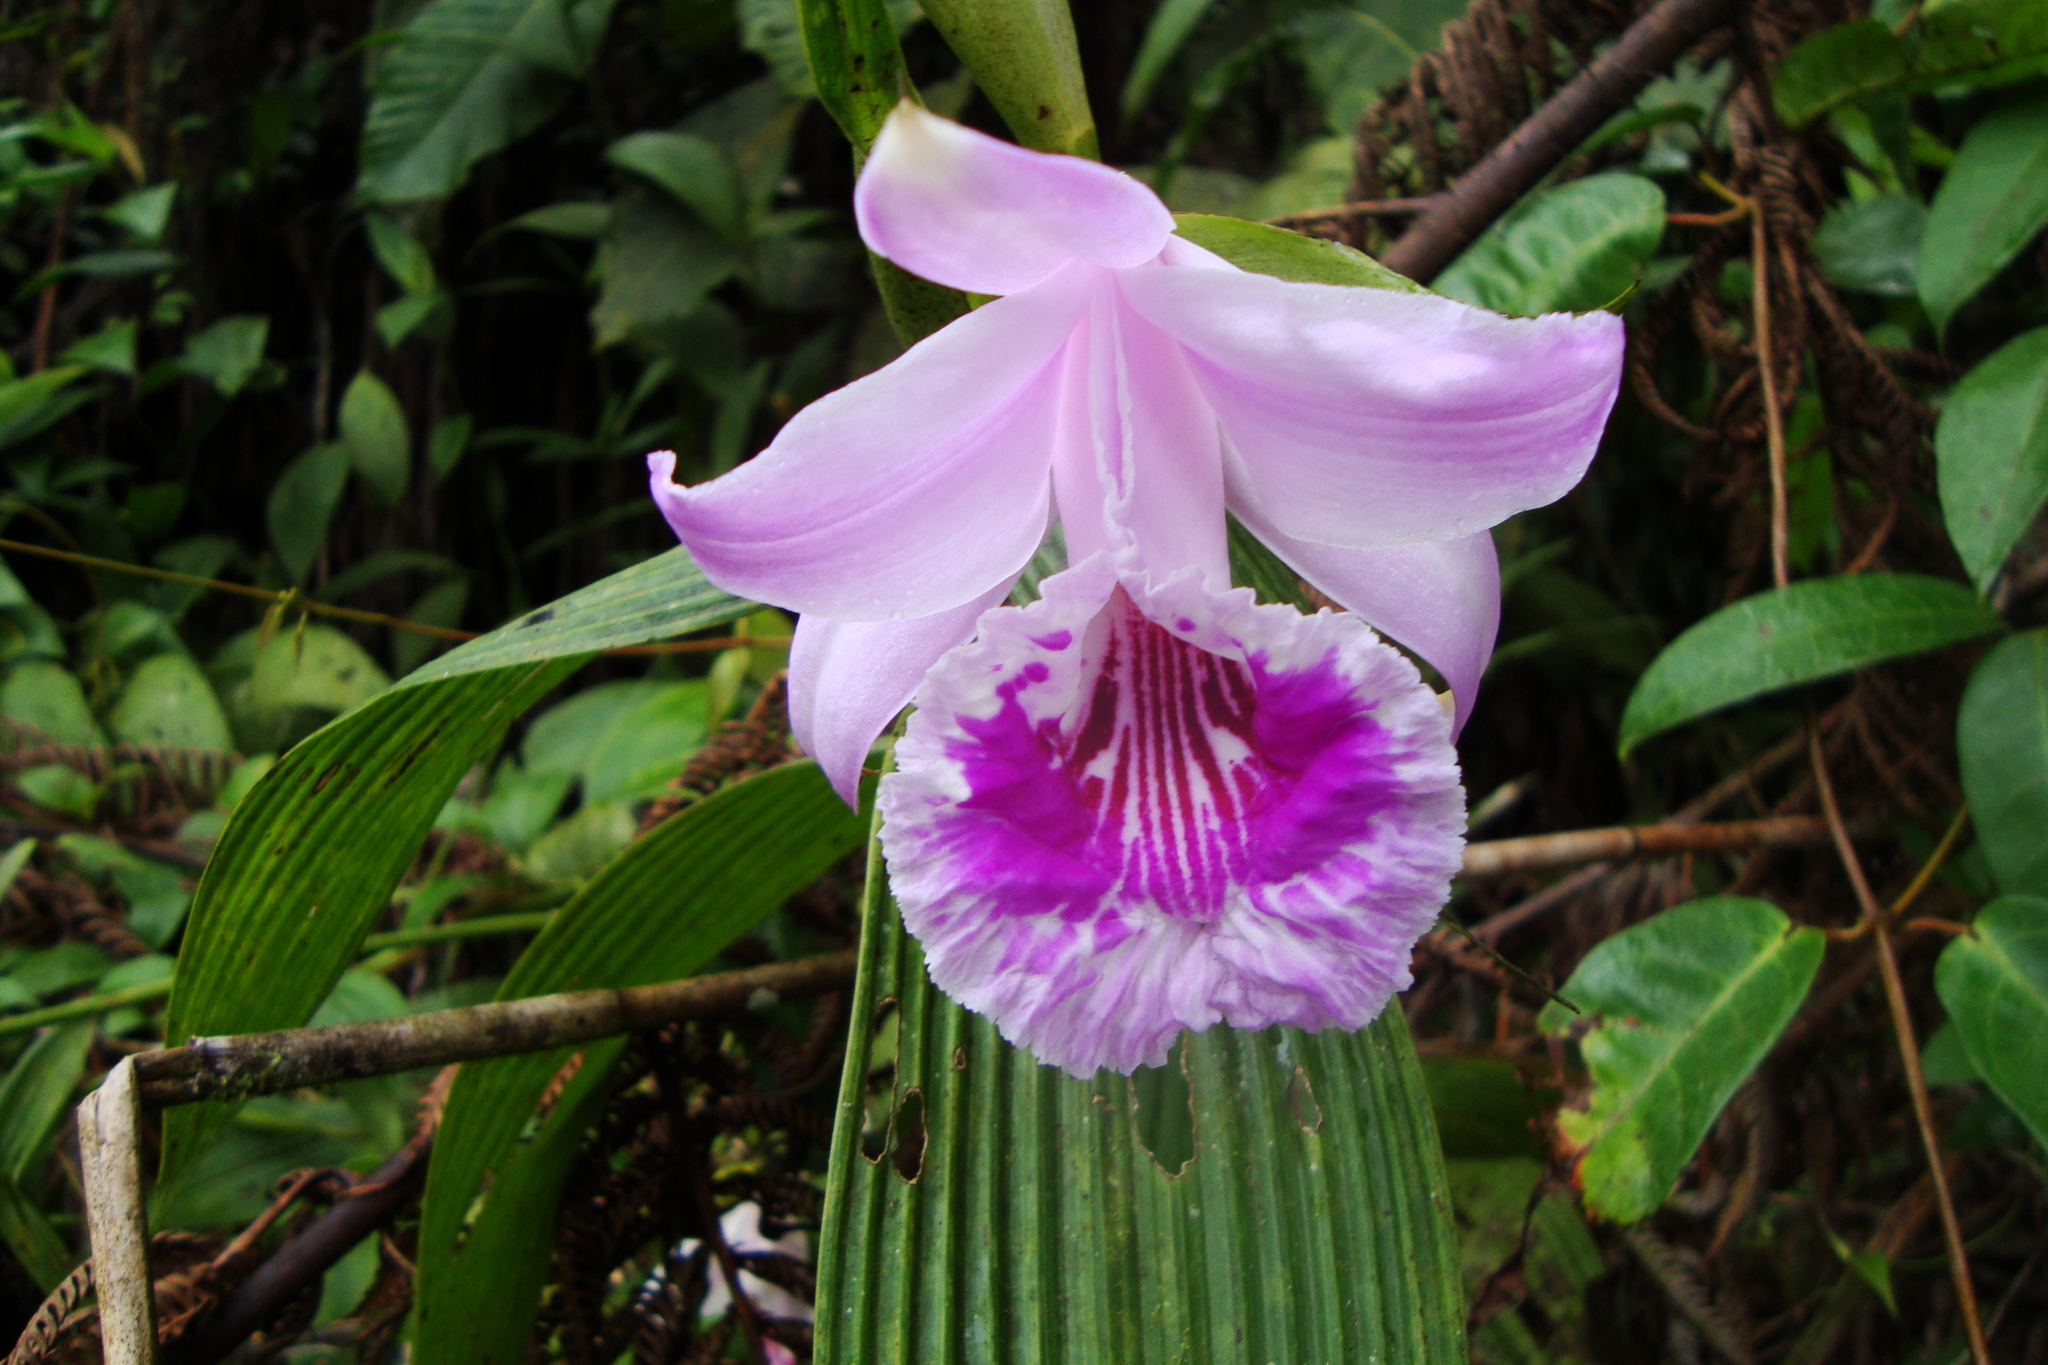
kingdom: Plantae
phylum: Tracheophyta
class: Liliopsida
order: Asparagales
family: Orchidaceae
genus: Sobralia
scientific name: Sobralia rosea
